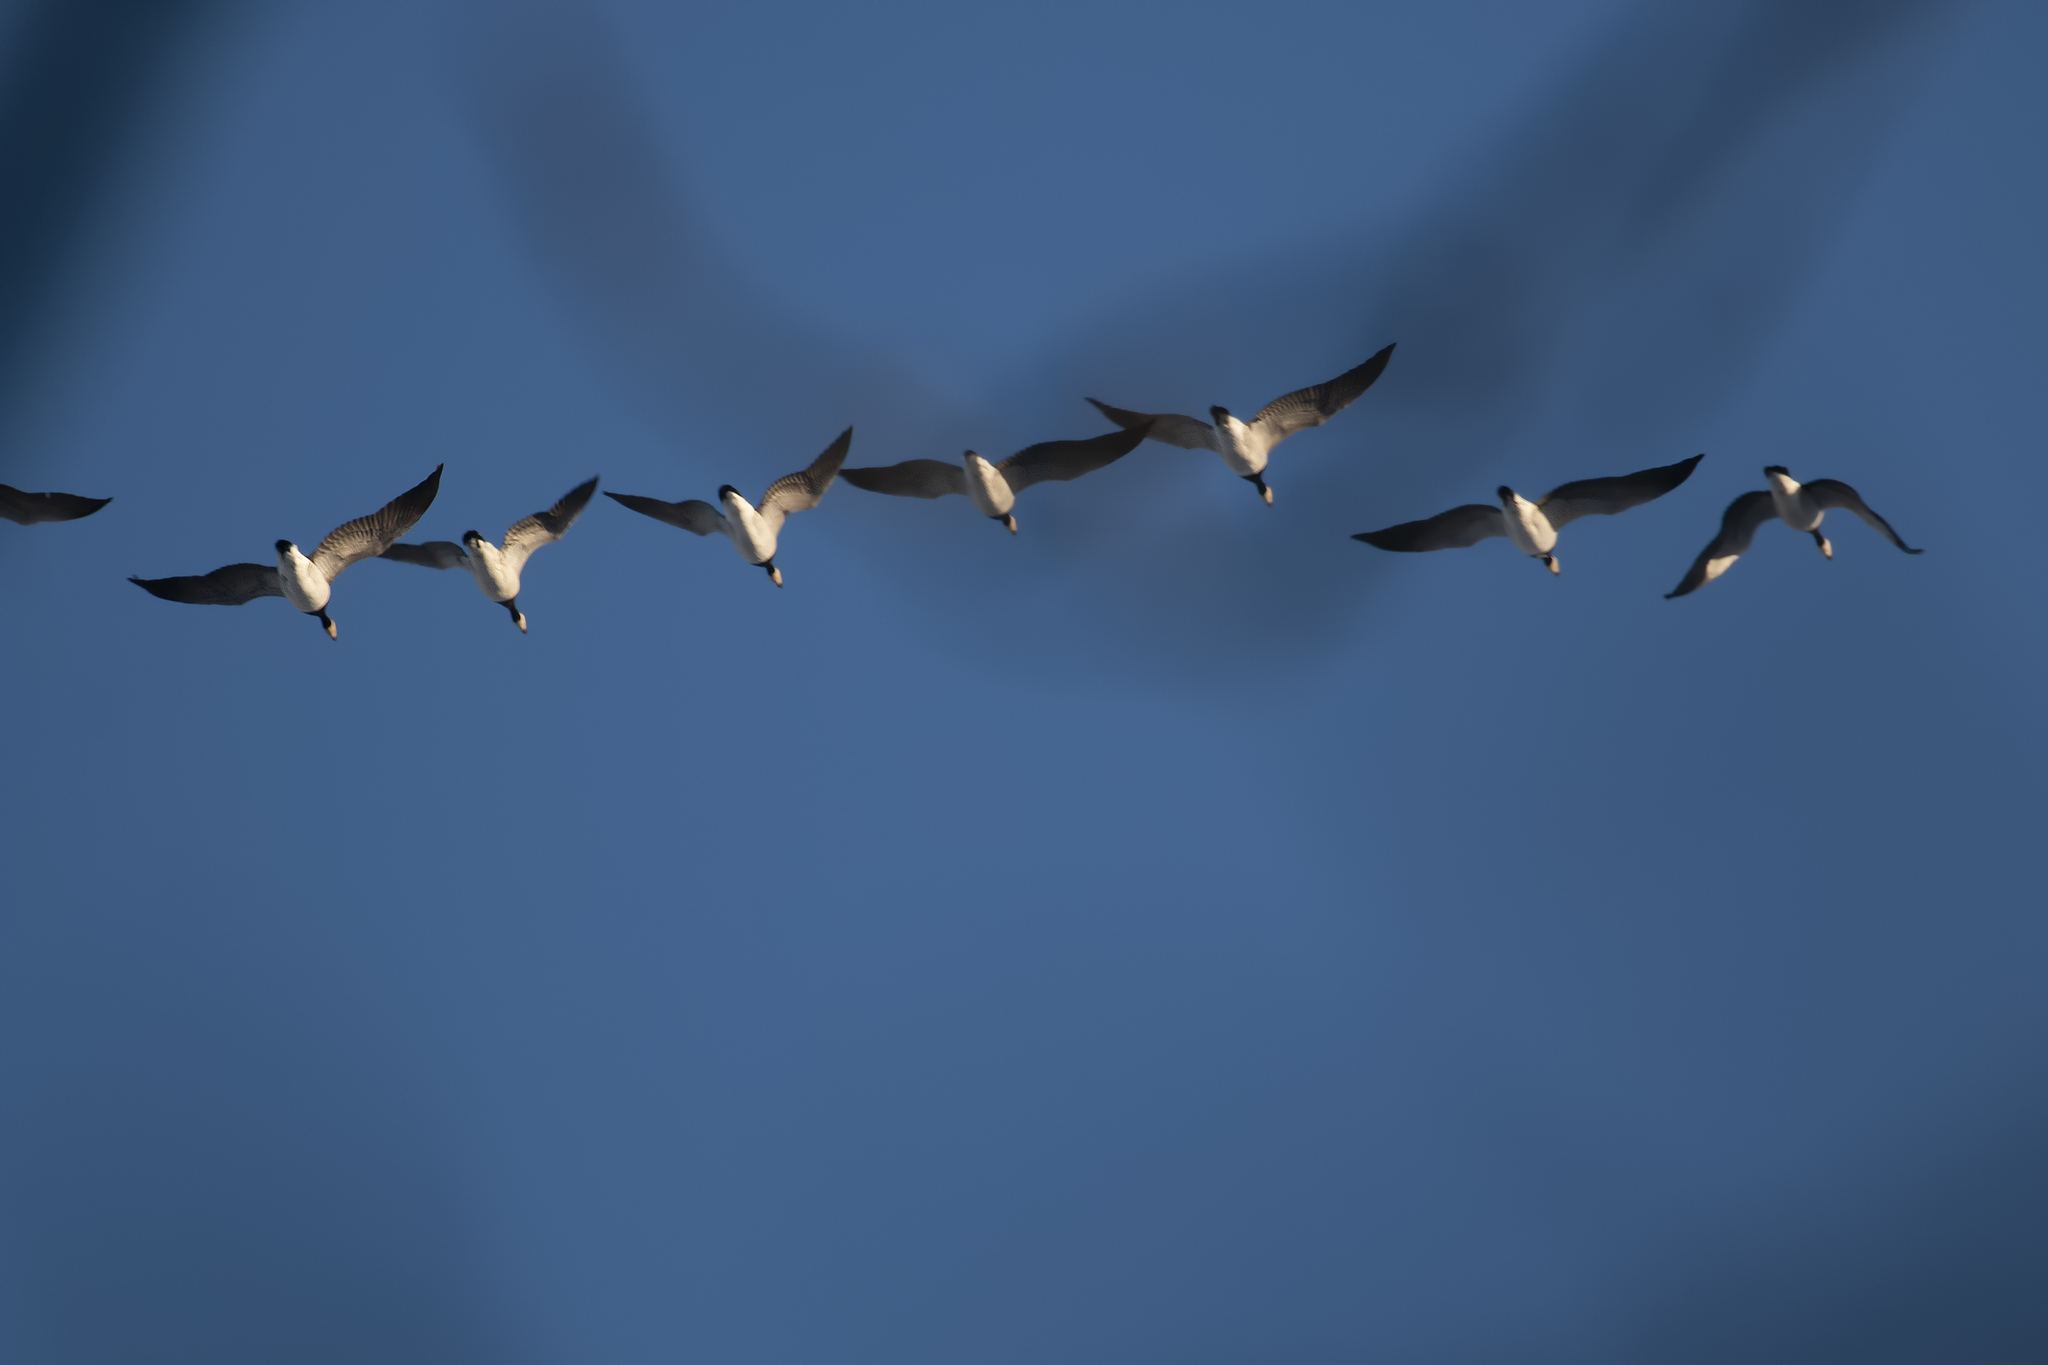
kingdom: Animalia
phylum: Chordata
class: Aves
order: Anseriformes
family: Anatidae
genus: Branta
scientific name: Branta leucopsis
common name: Barnacle goose
